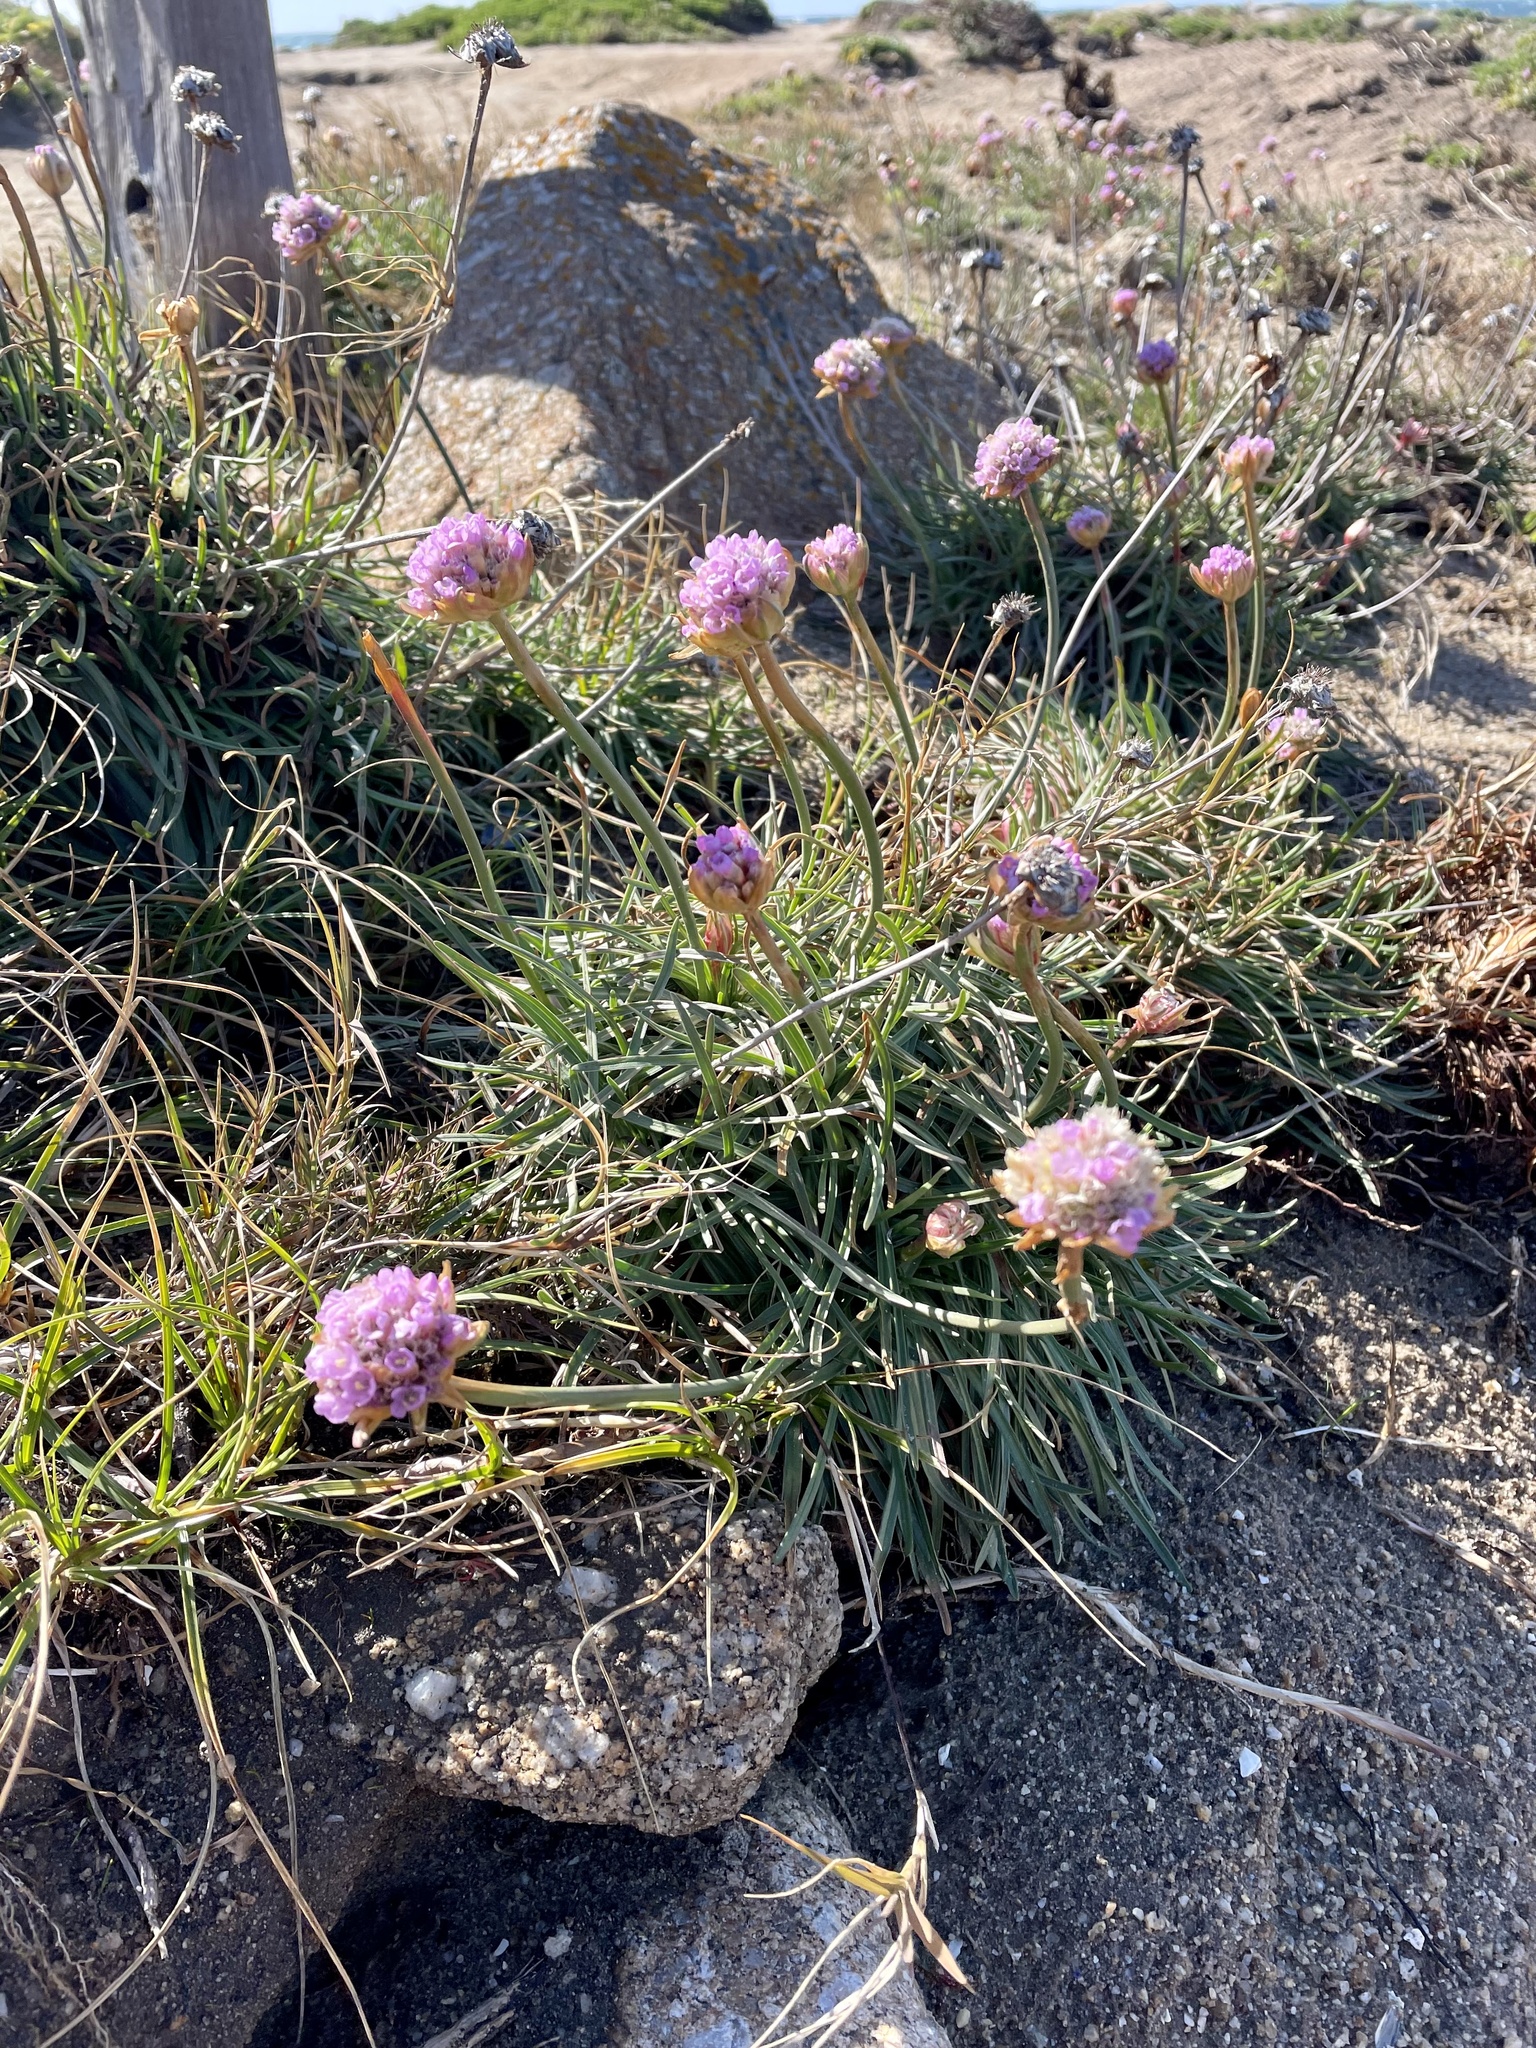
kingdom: Plantae
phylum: Tracheophyta
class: Magnoliopsida
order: Caryophyllales
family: Plumbaginaceae
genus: Armeria
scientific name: Armeria maritima
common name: Thrift
